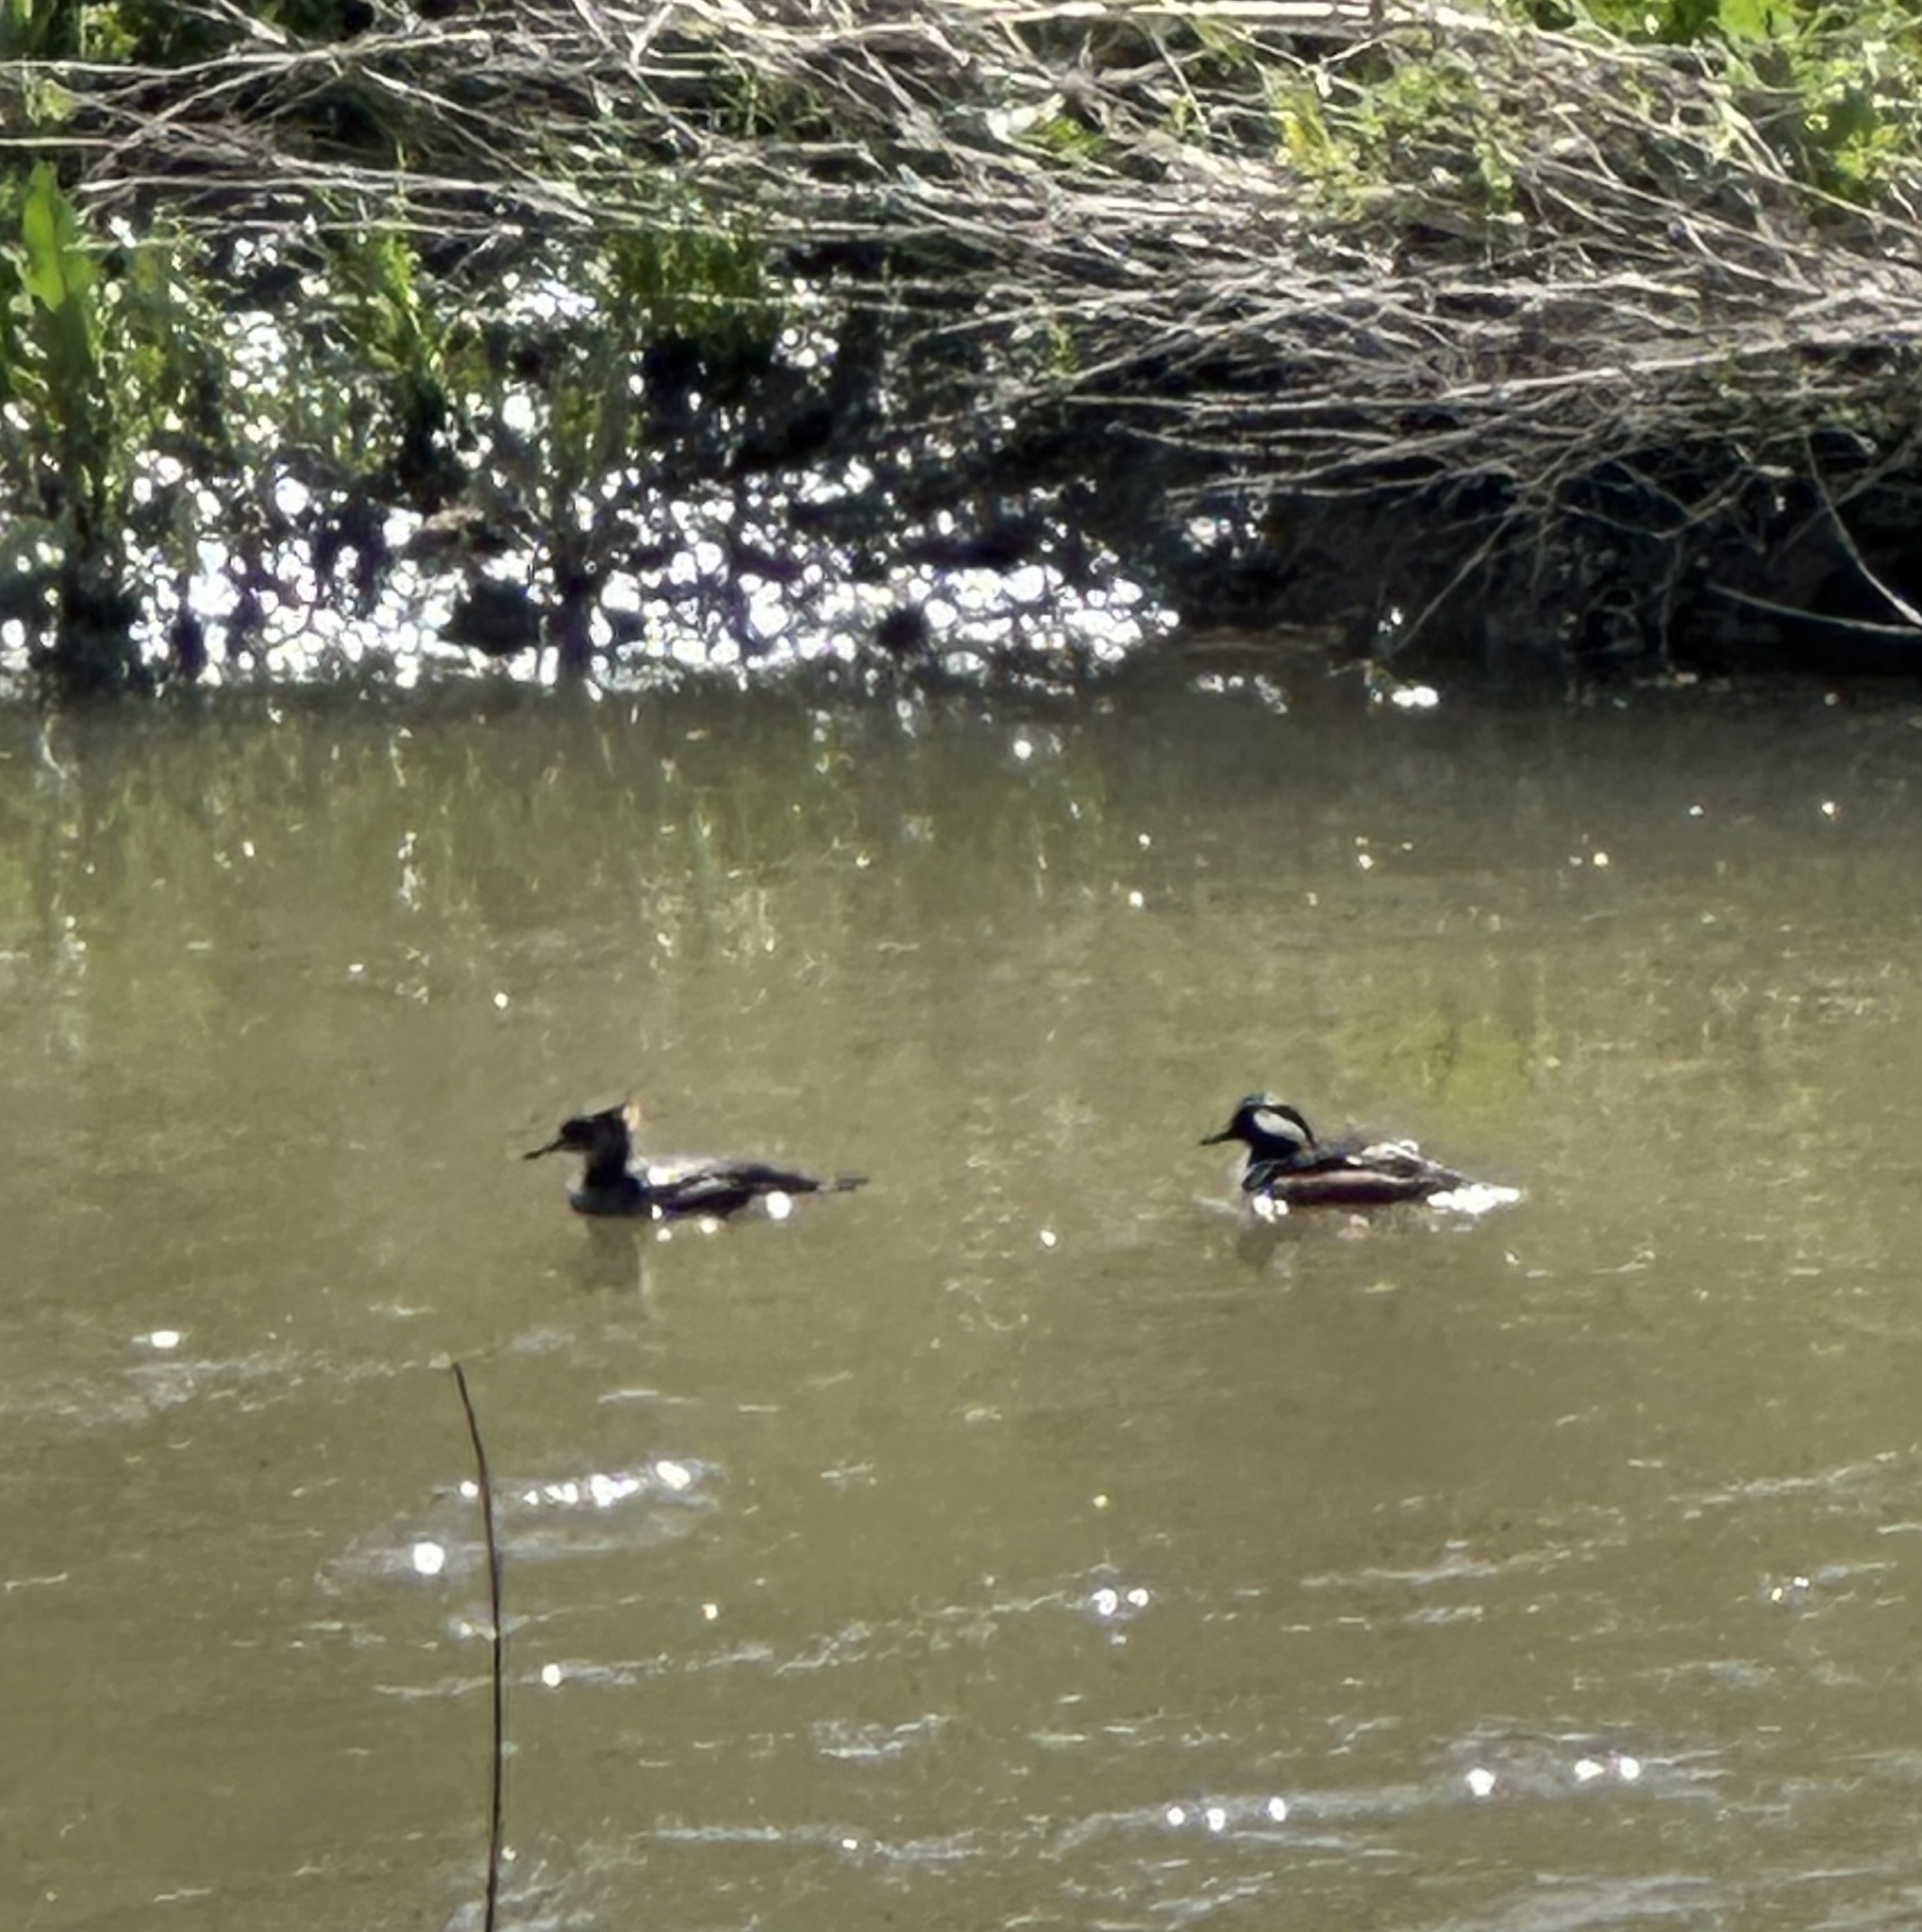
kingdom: Animalia
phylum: Chordata
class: Aves
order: Anseriformes
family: Anatidae
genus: Lophodytes
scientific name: Lophodytes cucullatus
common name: Hooded merganser
